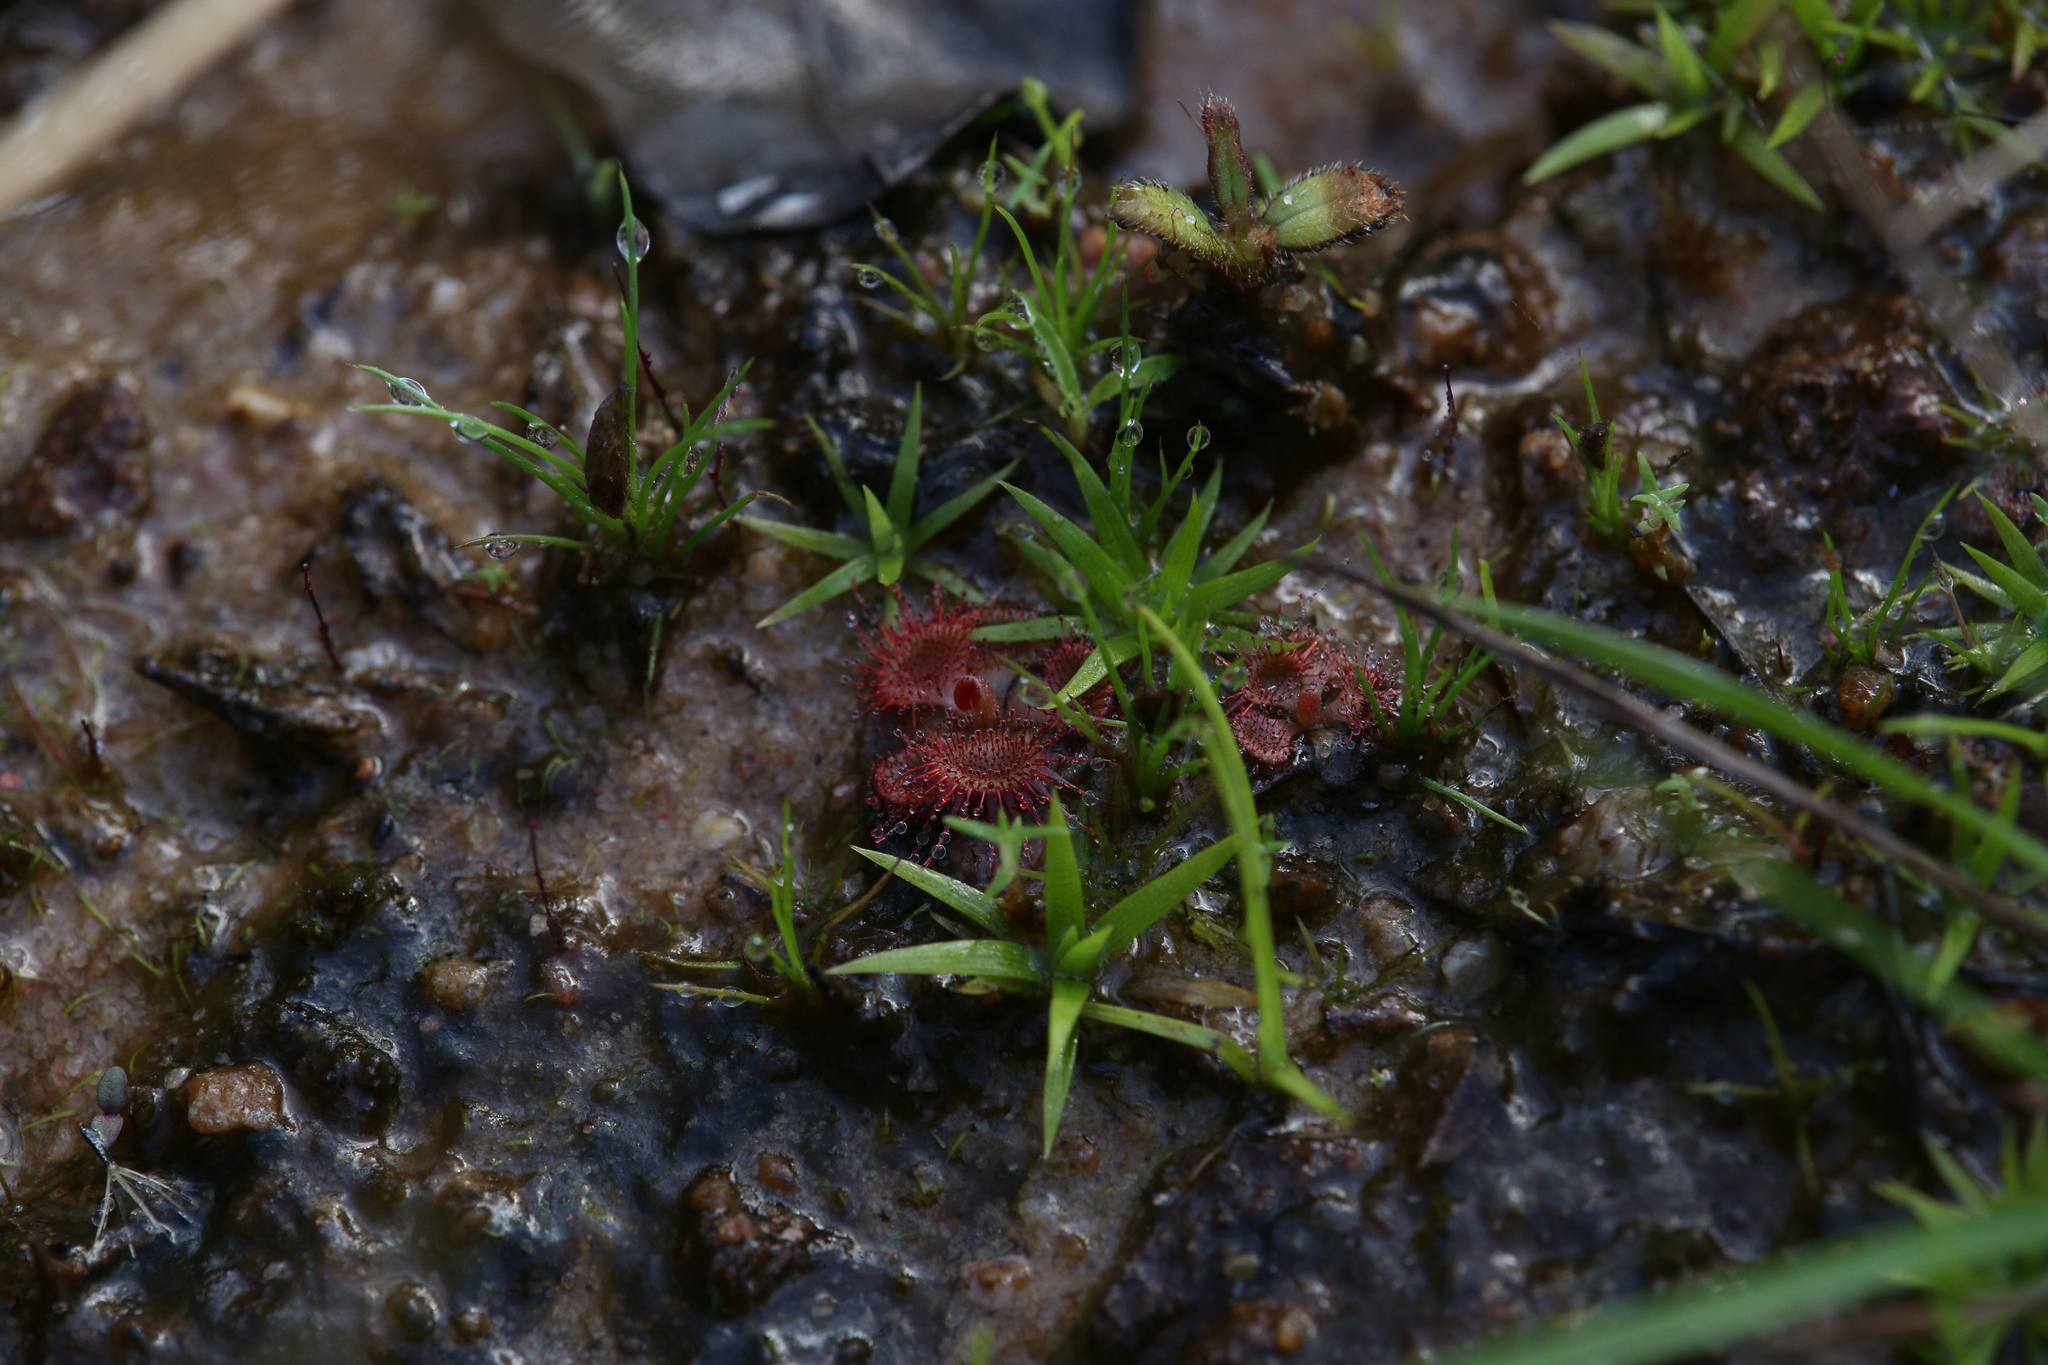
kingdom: Plantae
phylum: Tracheophyta
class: Magnoliopsida
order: Caryophyllales
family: Droseraceae
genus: Drosera
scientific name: Drosera spatulata
